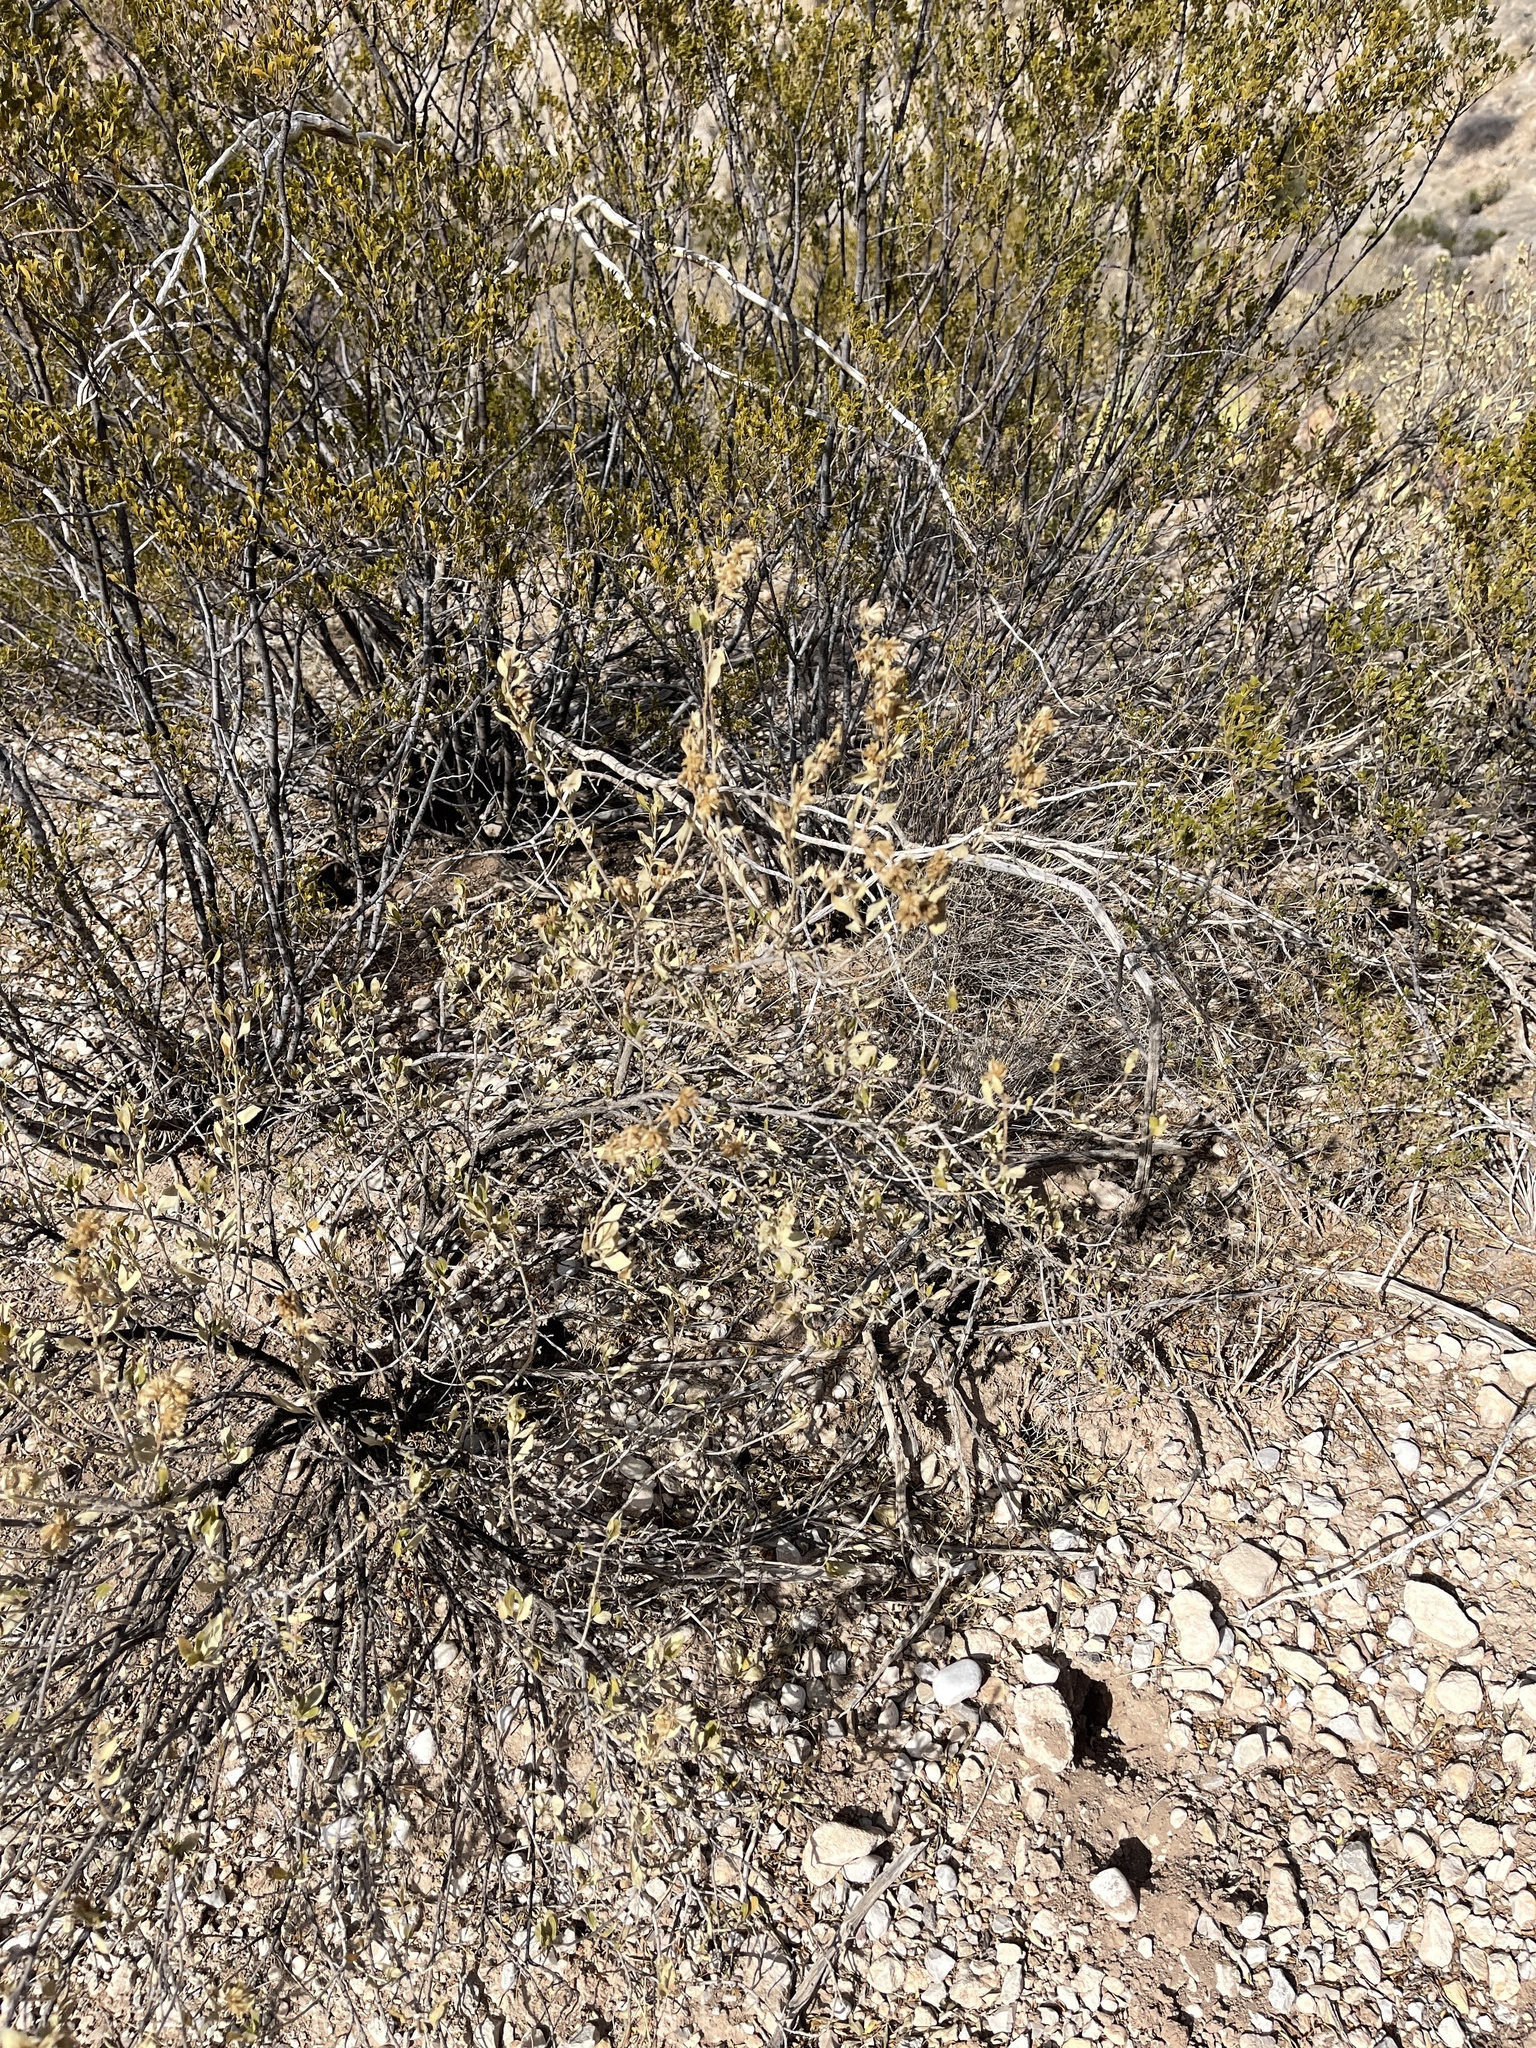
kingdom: Plantae
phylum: Tracheophyta
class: Magnoliopsida
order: Asterales
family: Asteraceae
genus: Flourensia
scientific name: Flourensia cernua
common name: Varnishbush
